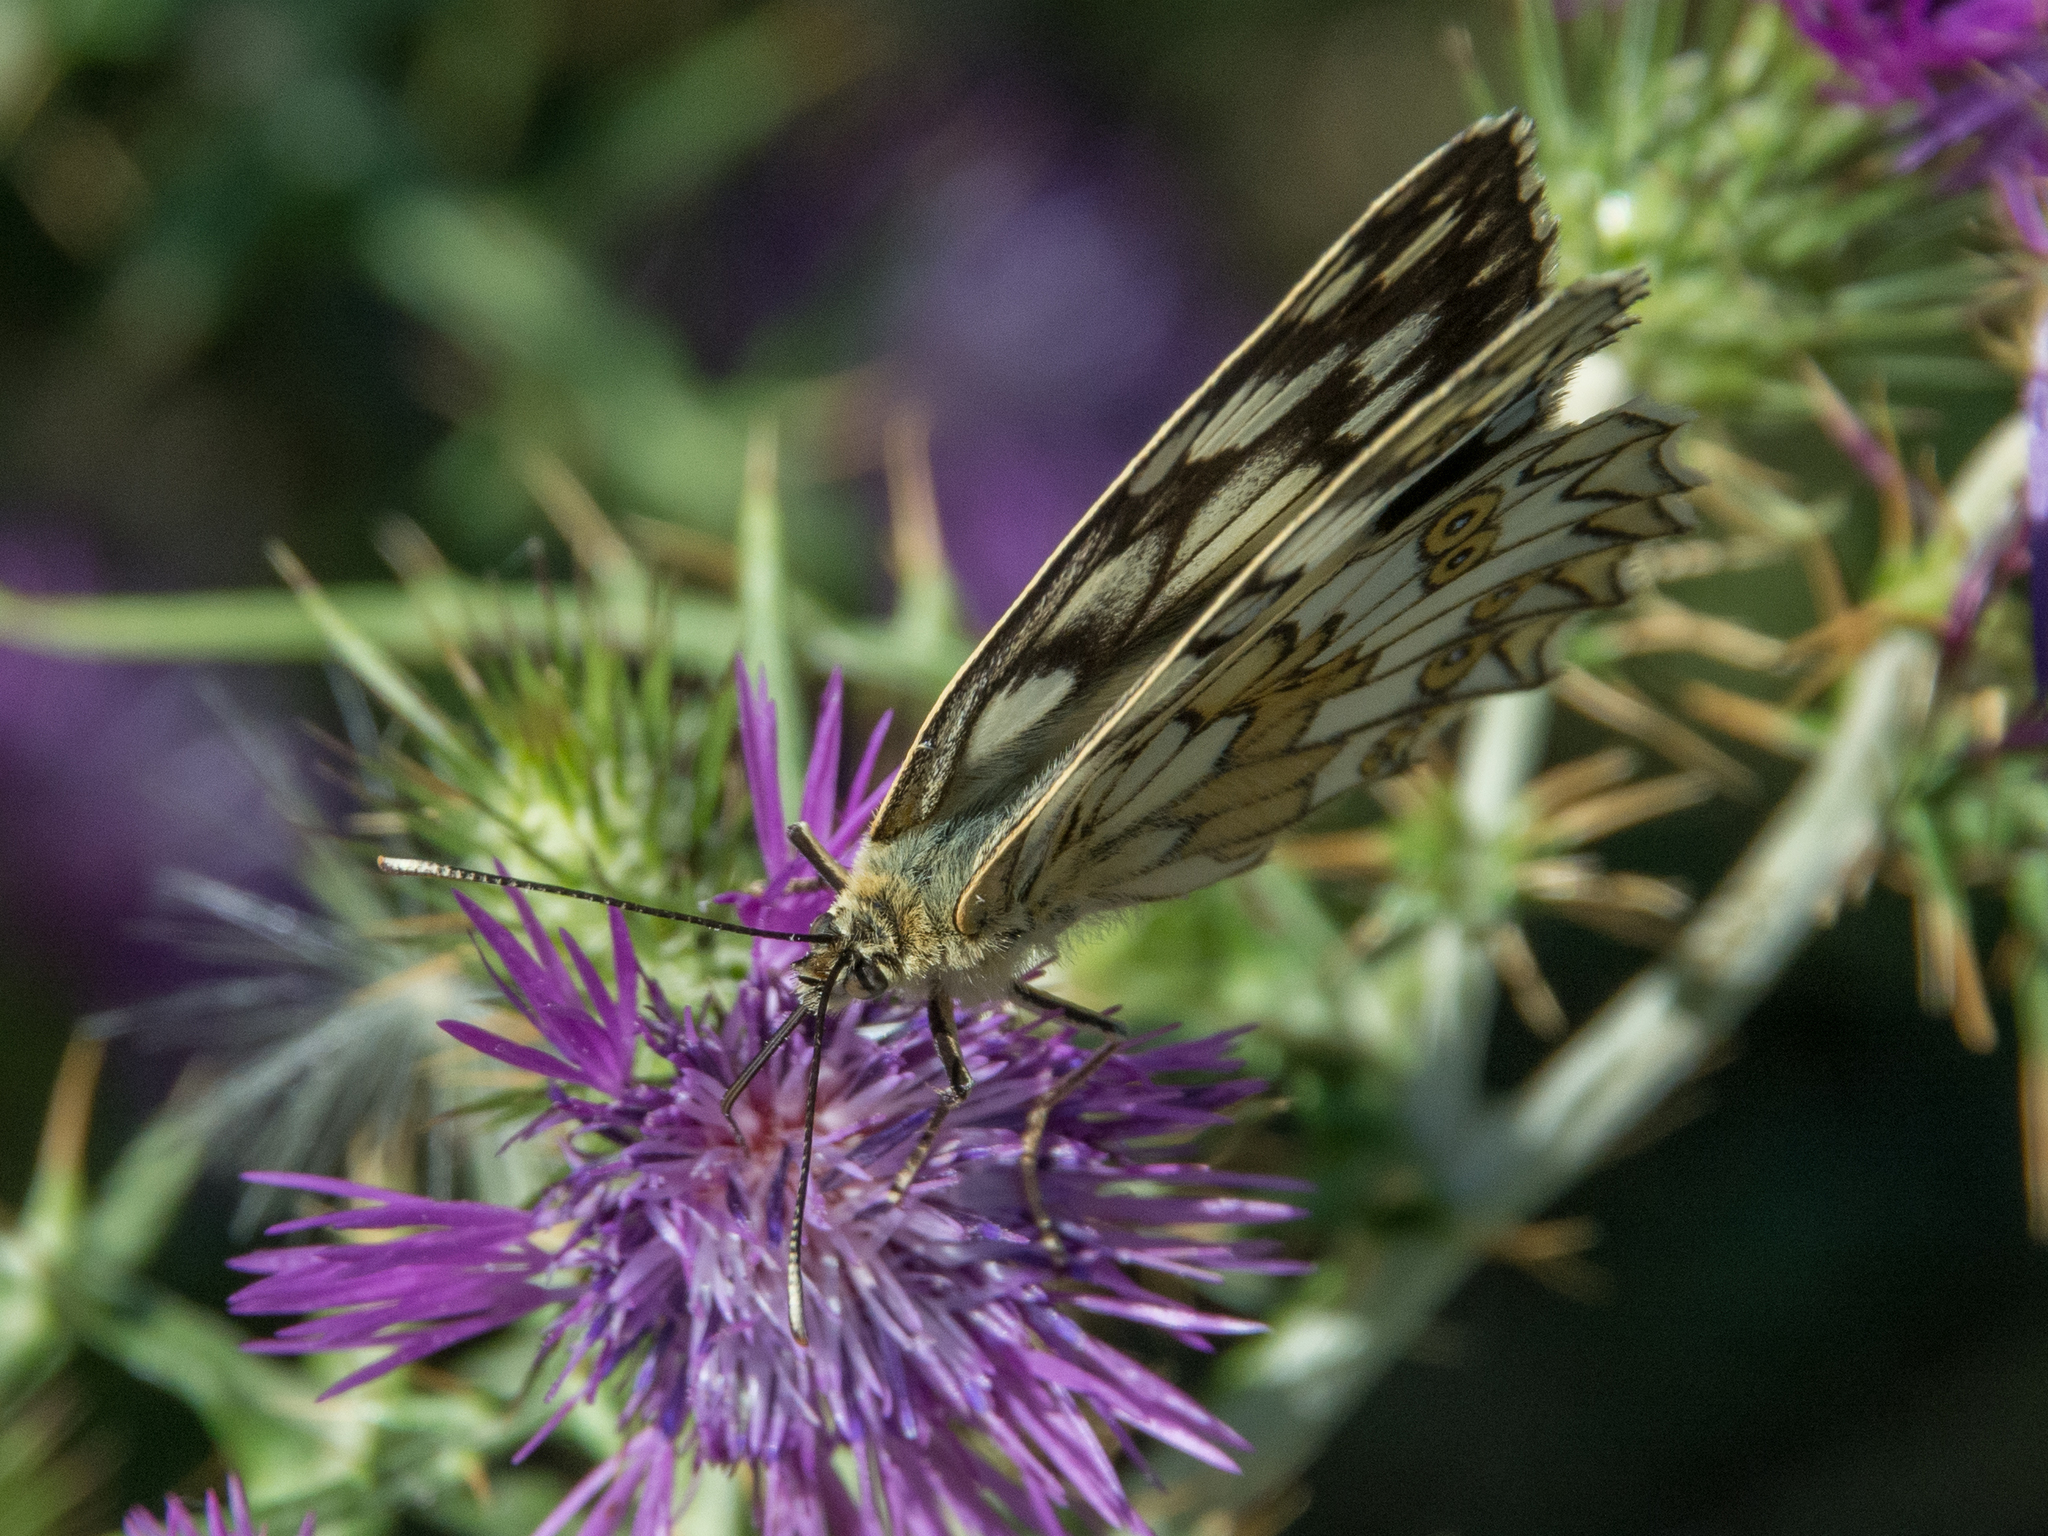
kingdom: Animalia
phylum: Arthropoda
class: Insecta
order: Lepidoptera
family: Nymphalidae
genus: Melanargia
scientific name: Melanargia japygia
